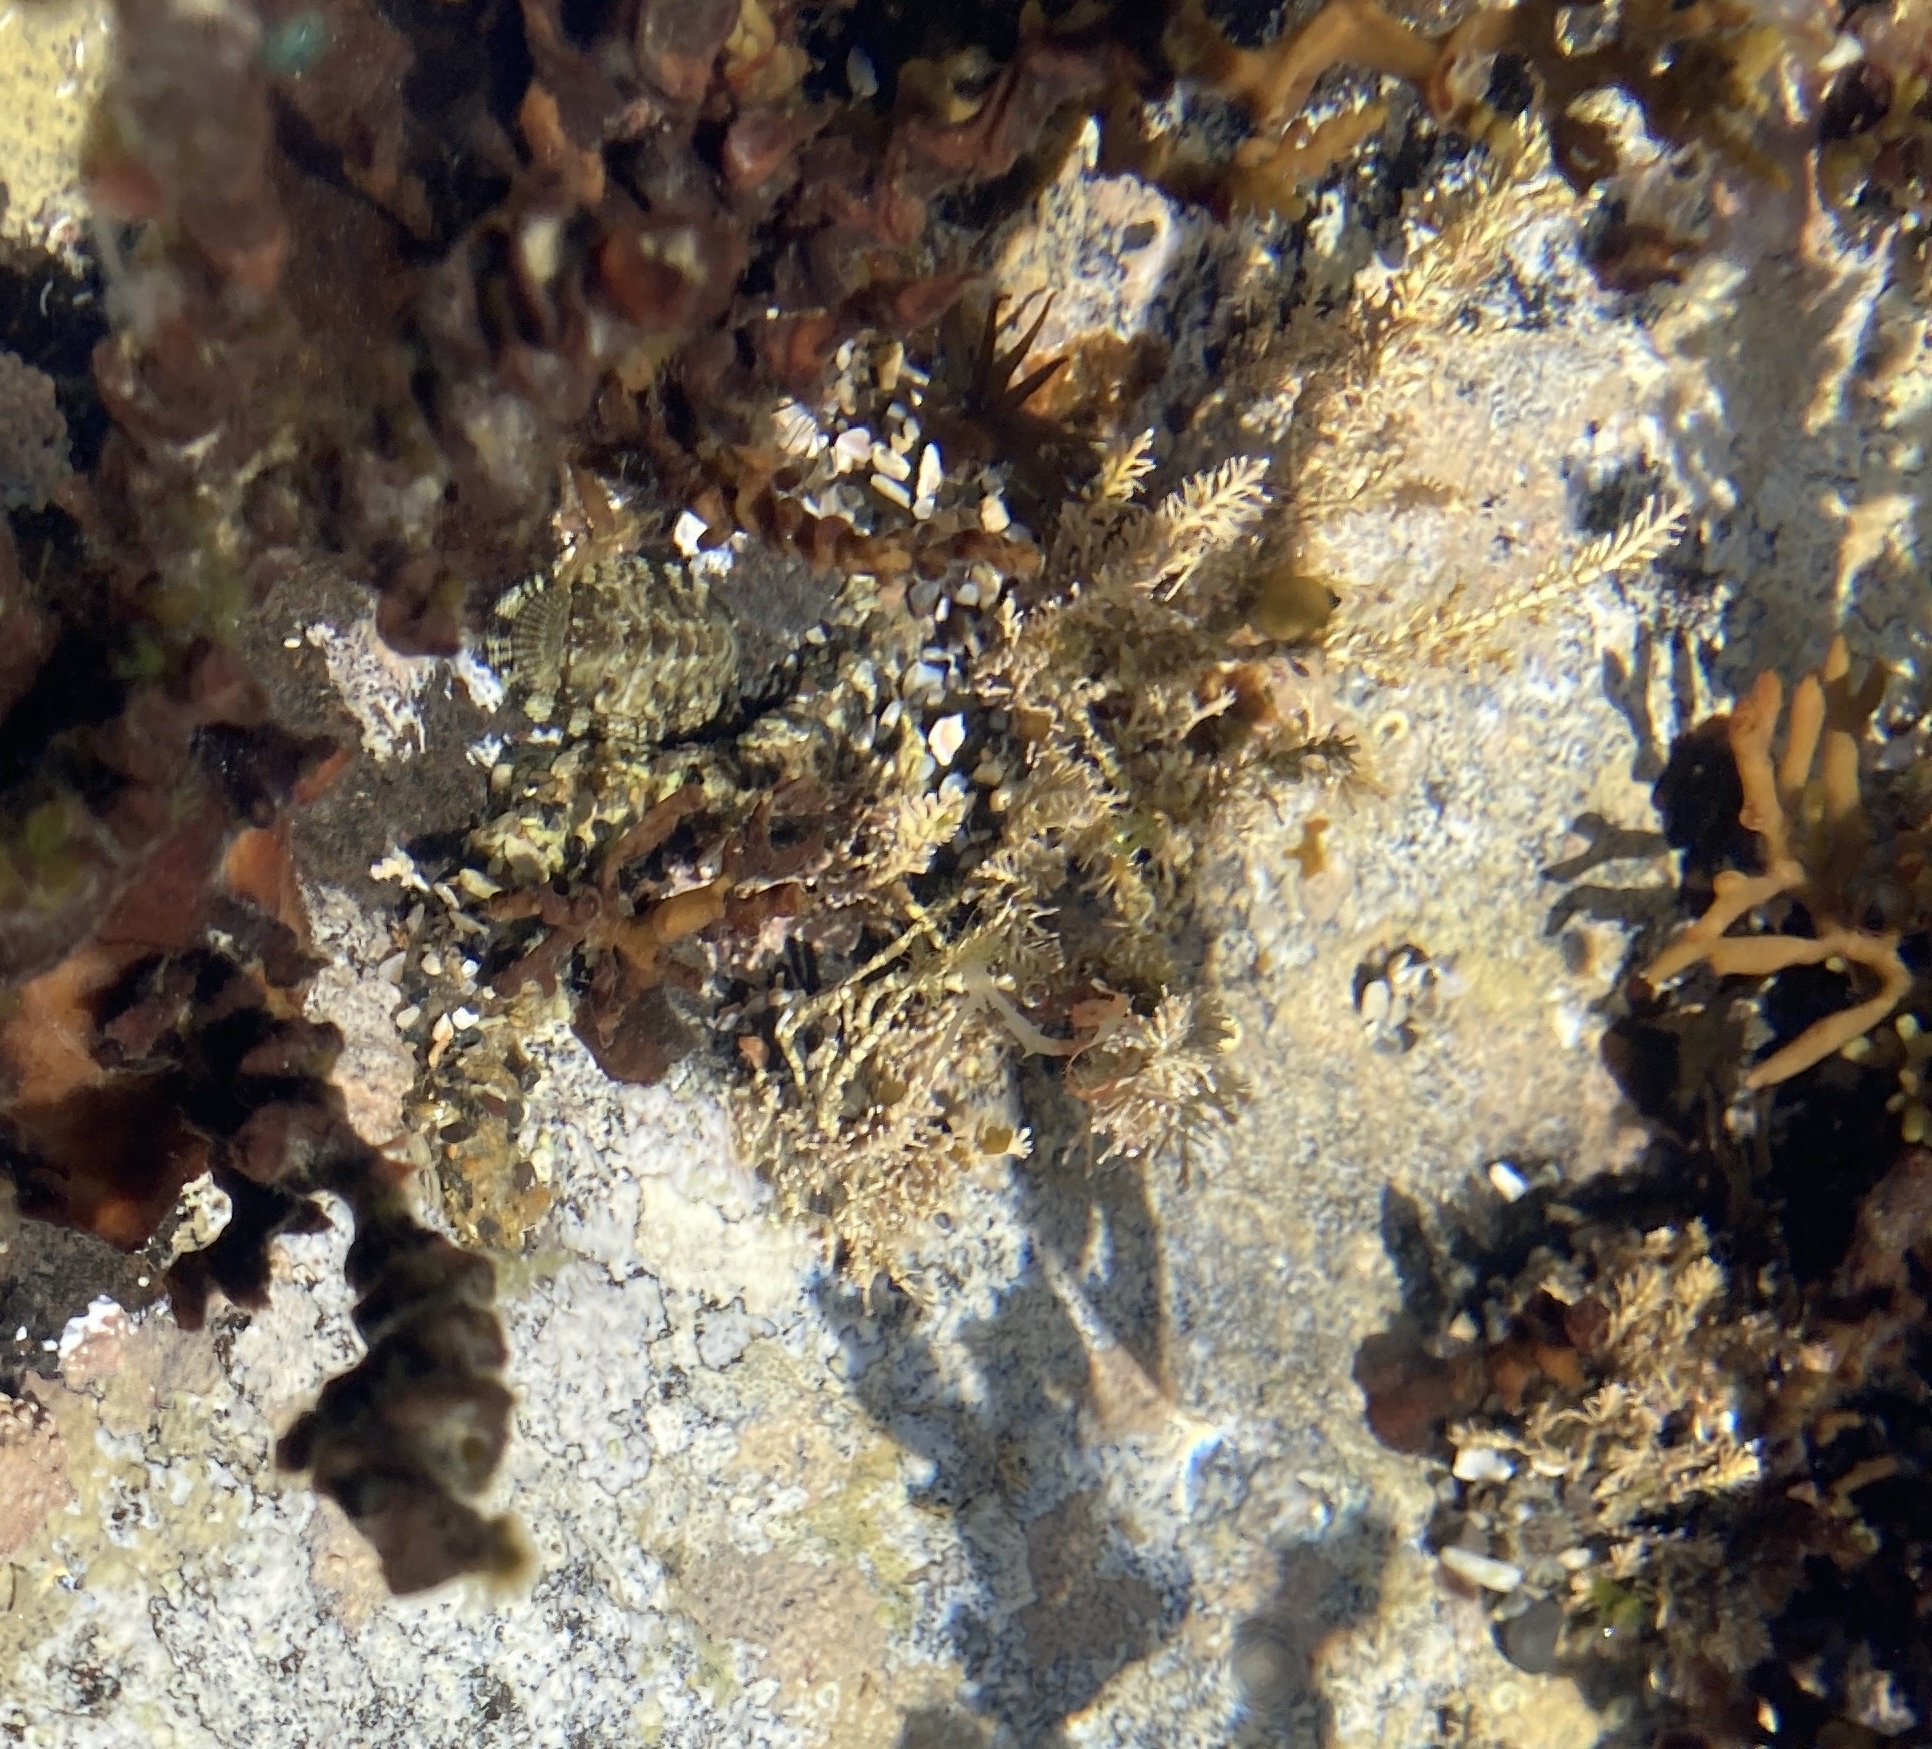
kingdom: Plantae
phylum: Rhodophyta
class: Florideophyceae
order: Corallinales
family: Corallinaceae
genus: Corallina
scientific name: Corallina officinalis
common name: Coral weed
